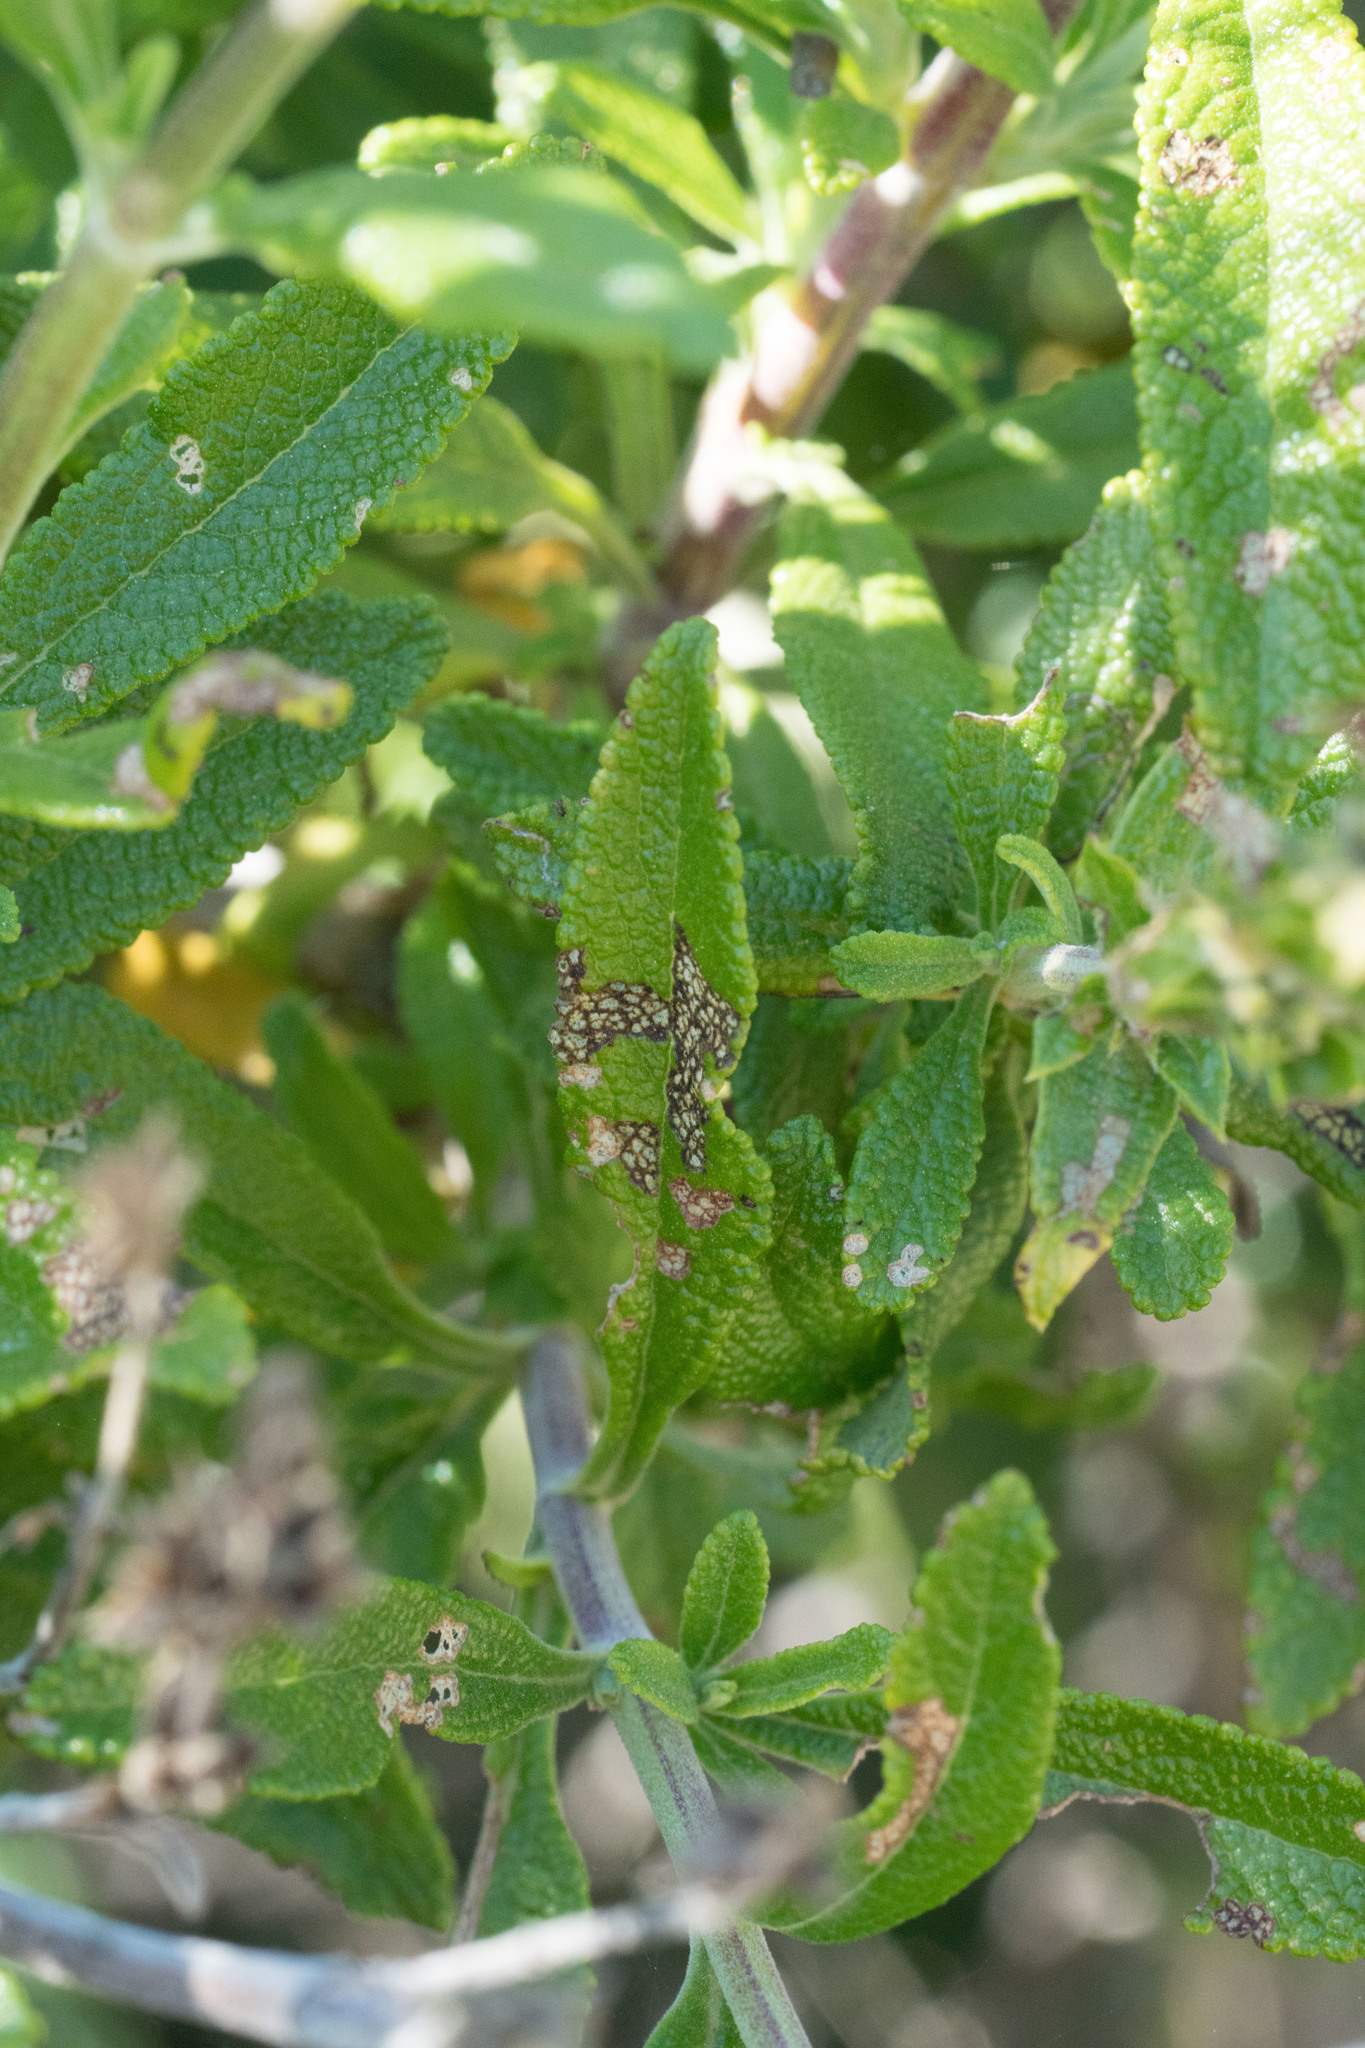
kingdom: Plantae
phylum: Tracheophyta
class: Magnoliopsida
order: Lamiales
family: Lamiaceae
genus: Salvia
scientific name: Salvia mellifera
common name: Black sage
